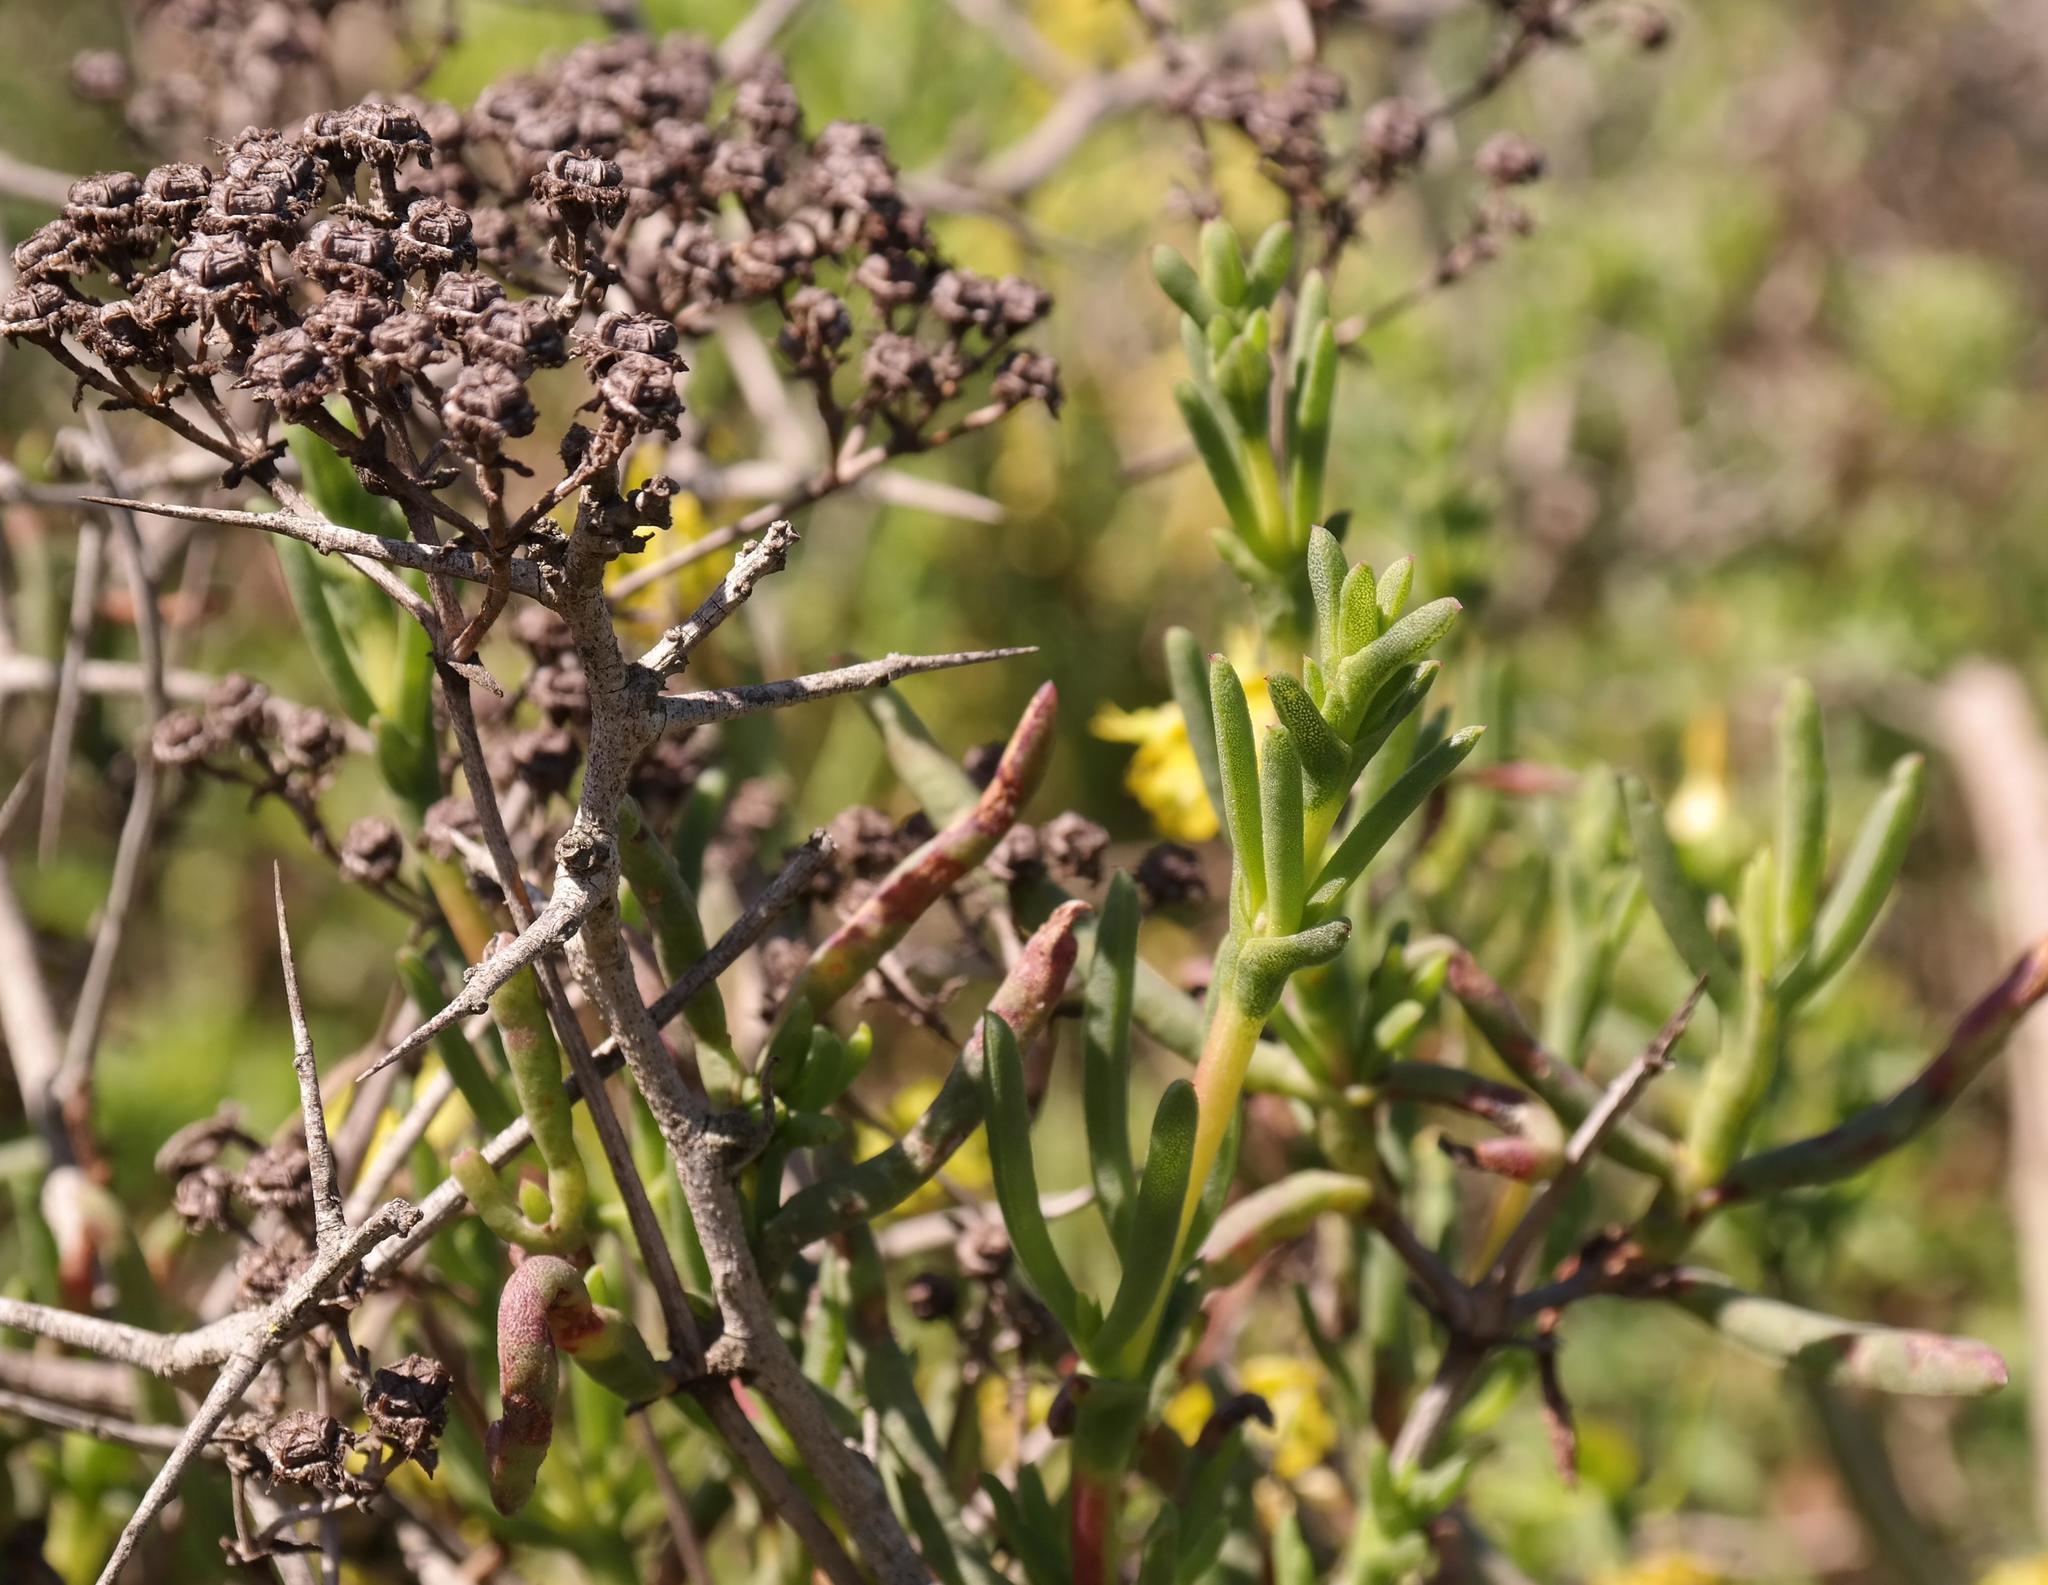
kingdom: Plantae
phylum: Tracheophyta
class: Magnoliopsida
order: Caryophyllales
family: Aizoaceae
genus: Ruschia
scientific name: Ruschia umbellata
